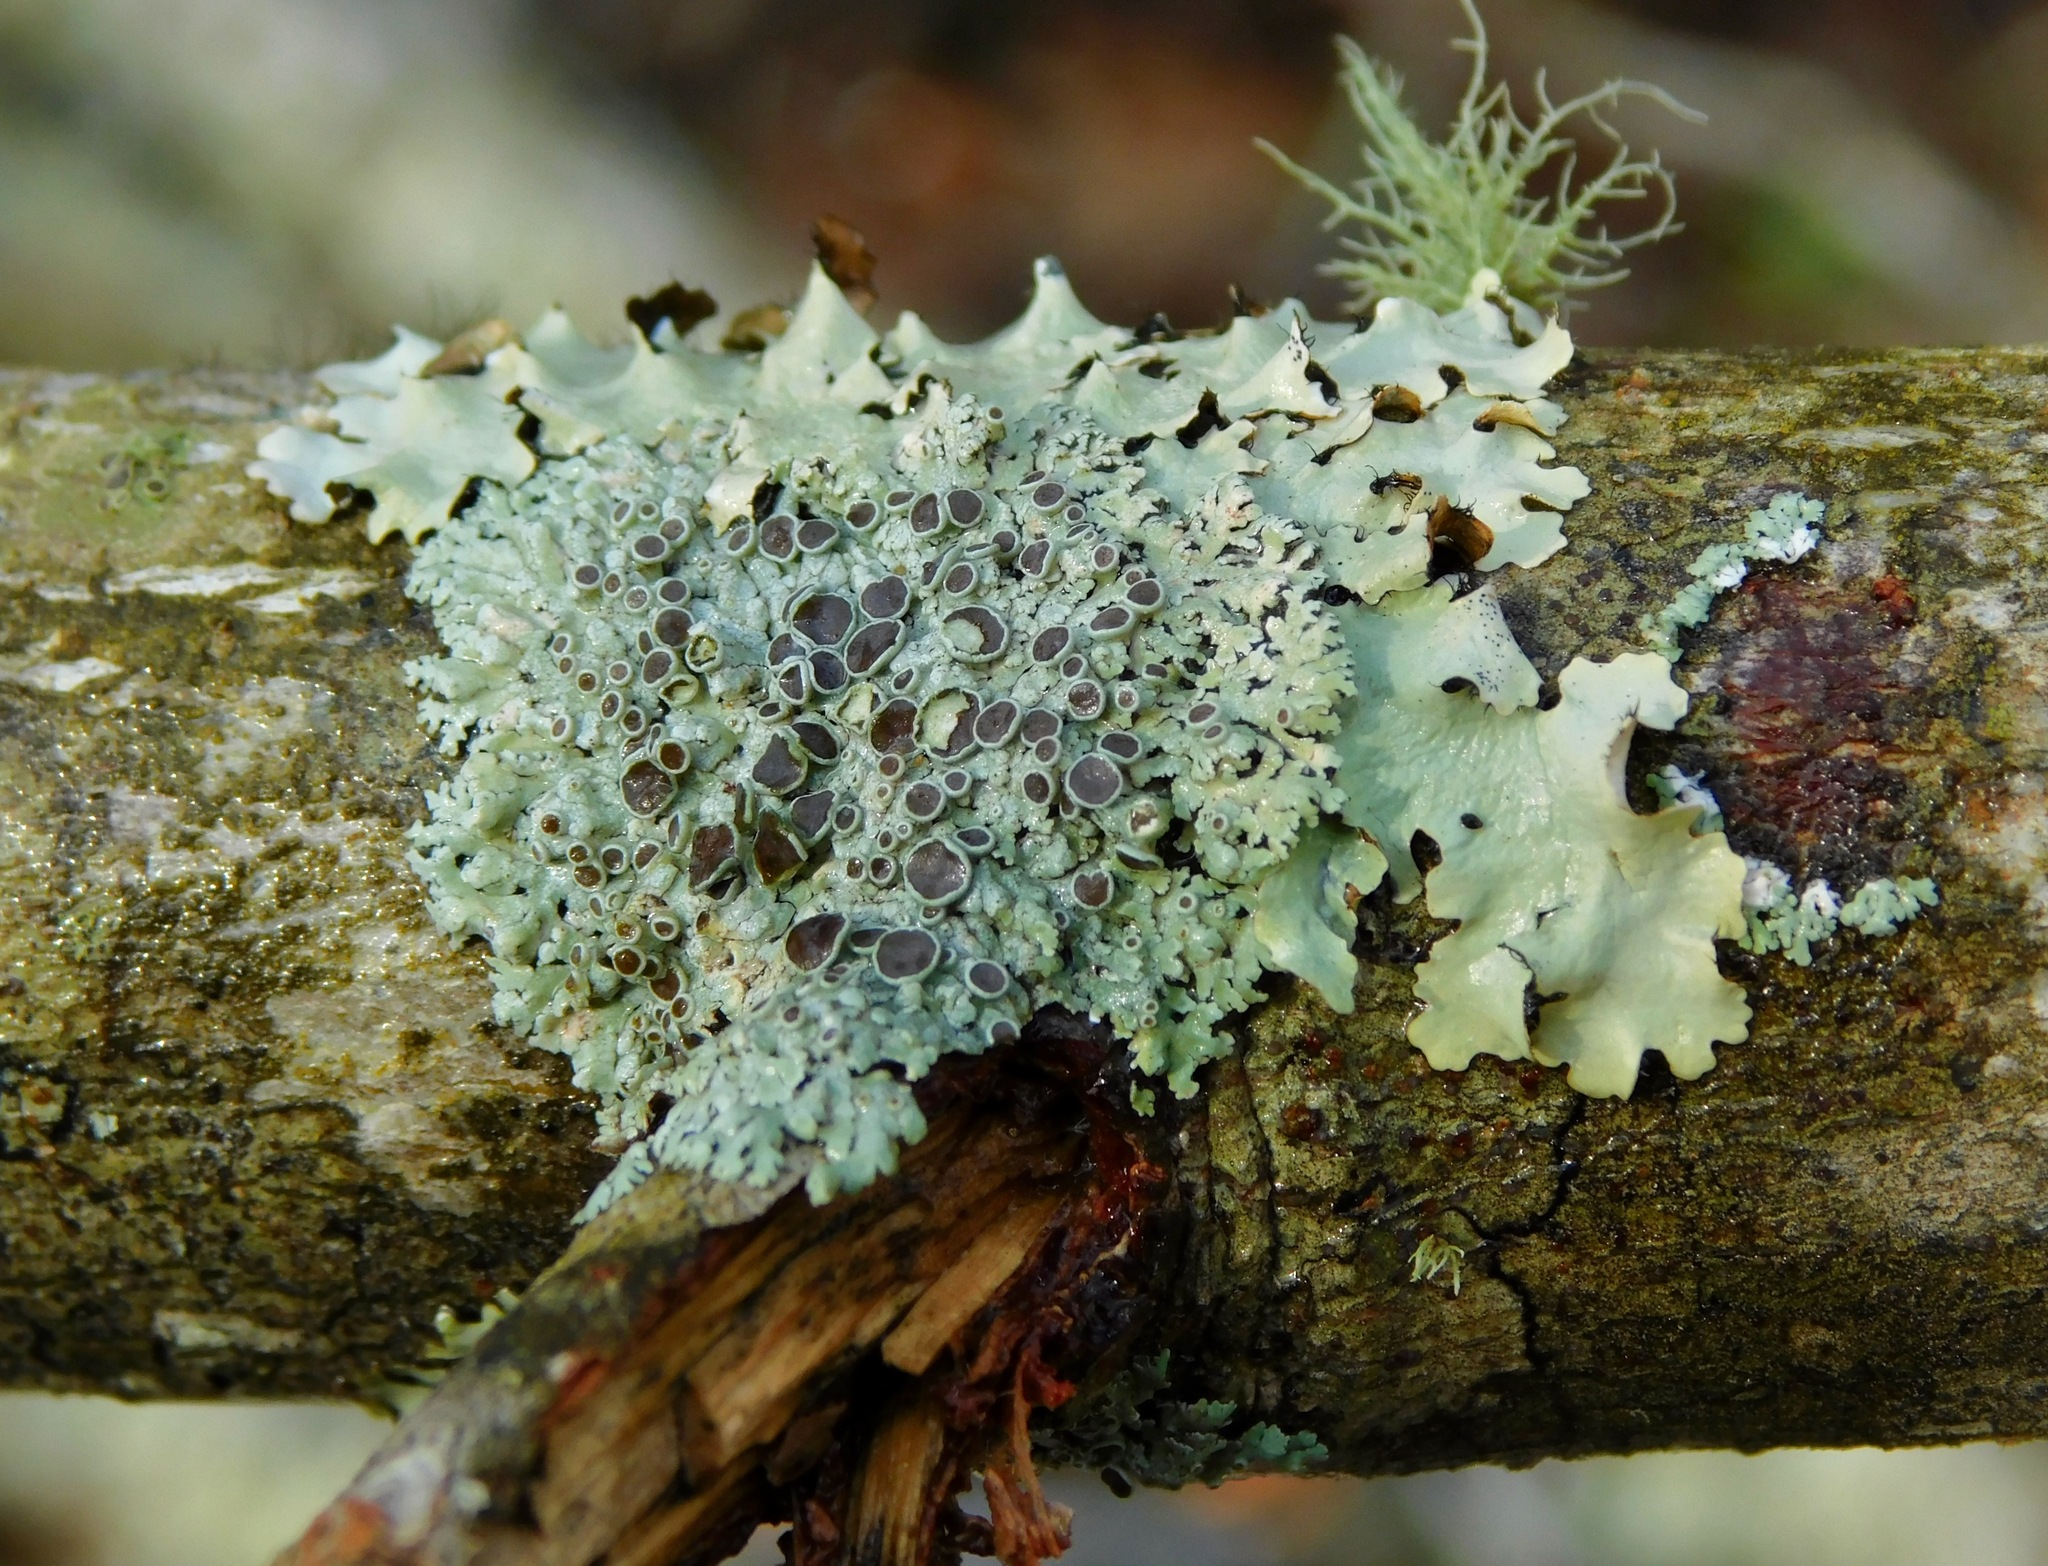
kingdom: Fungi
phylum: Ascomycota
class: Lecanoromycetes
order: Caliciales
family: Physciaceae
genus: Physcia
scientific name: Physcia stellaris
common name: Star rosette lichen
